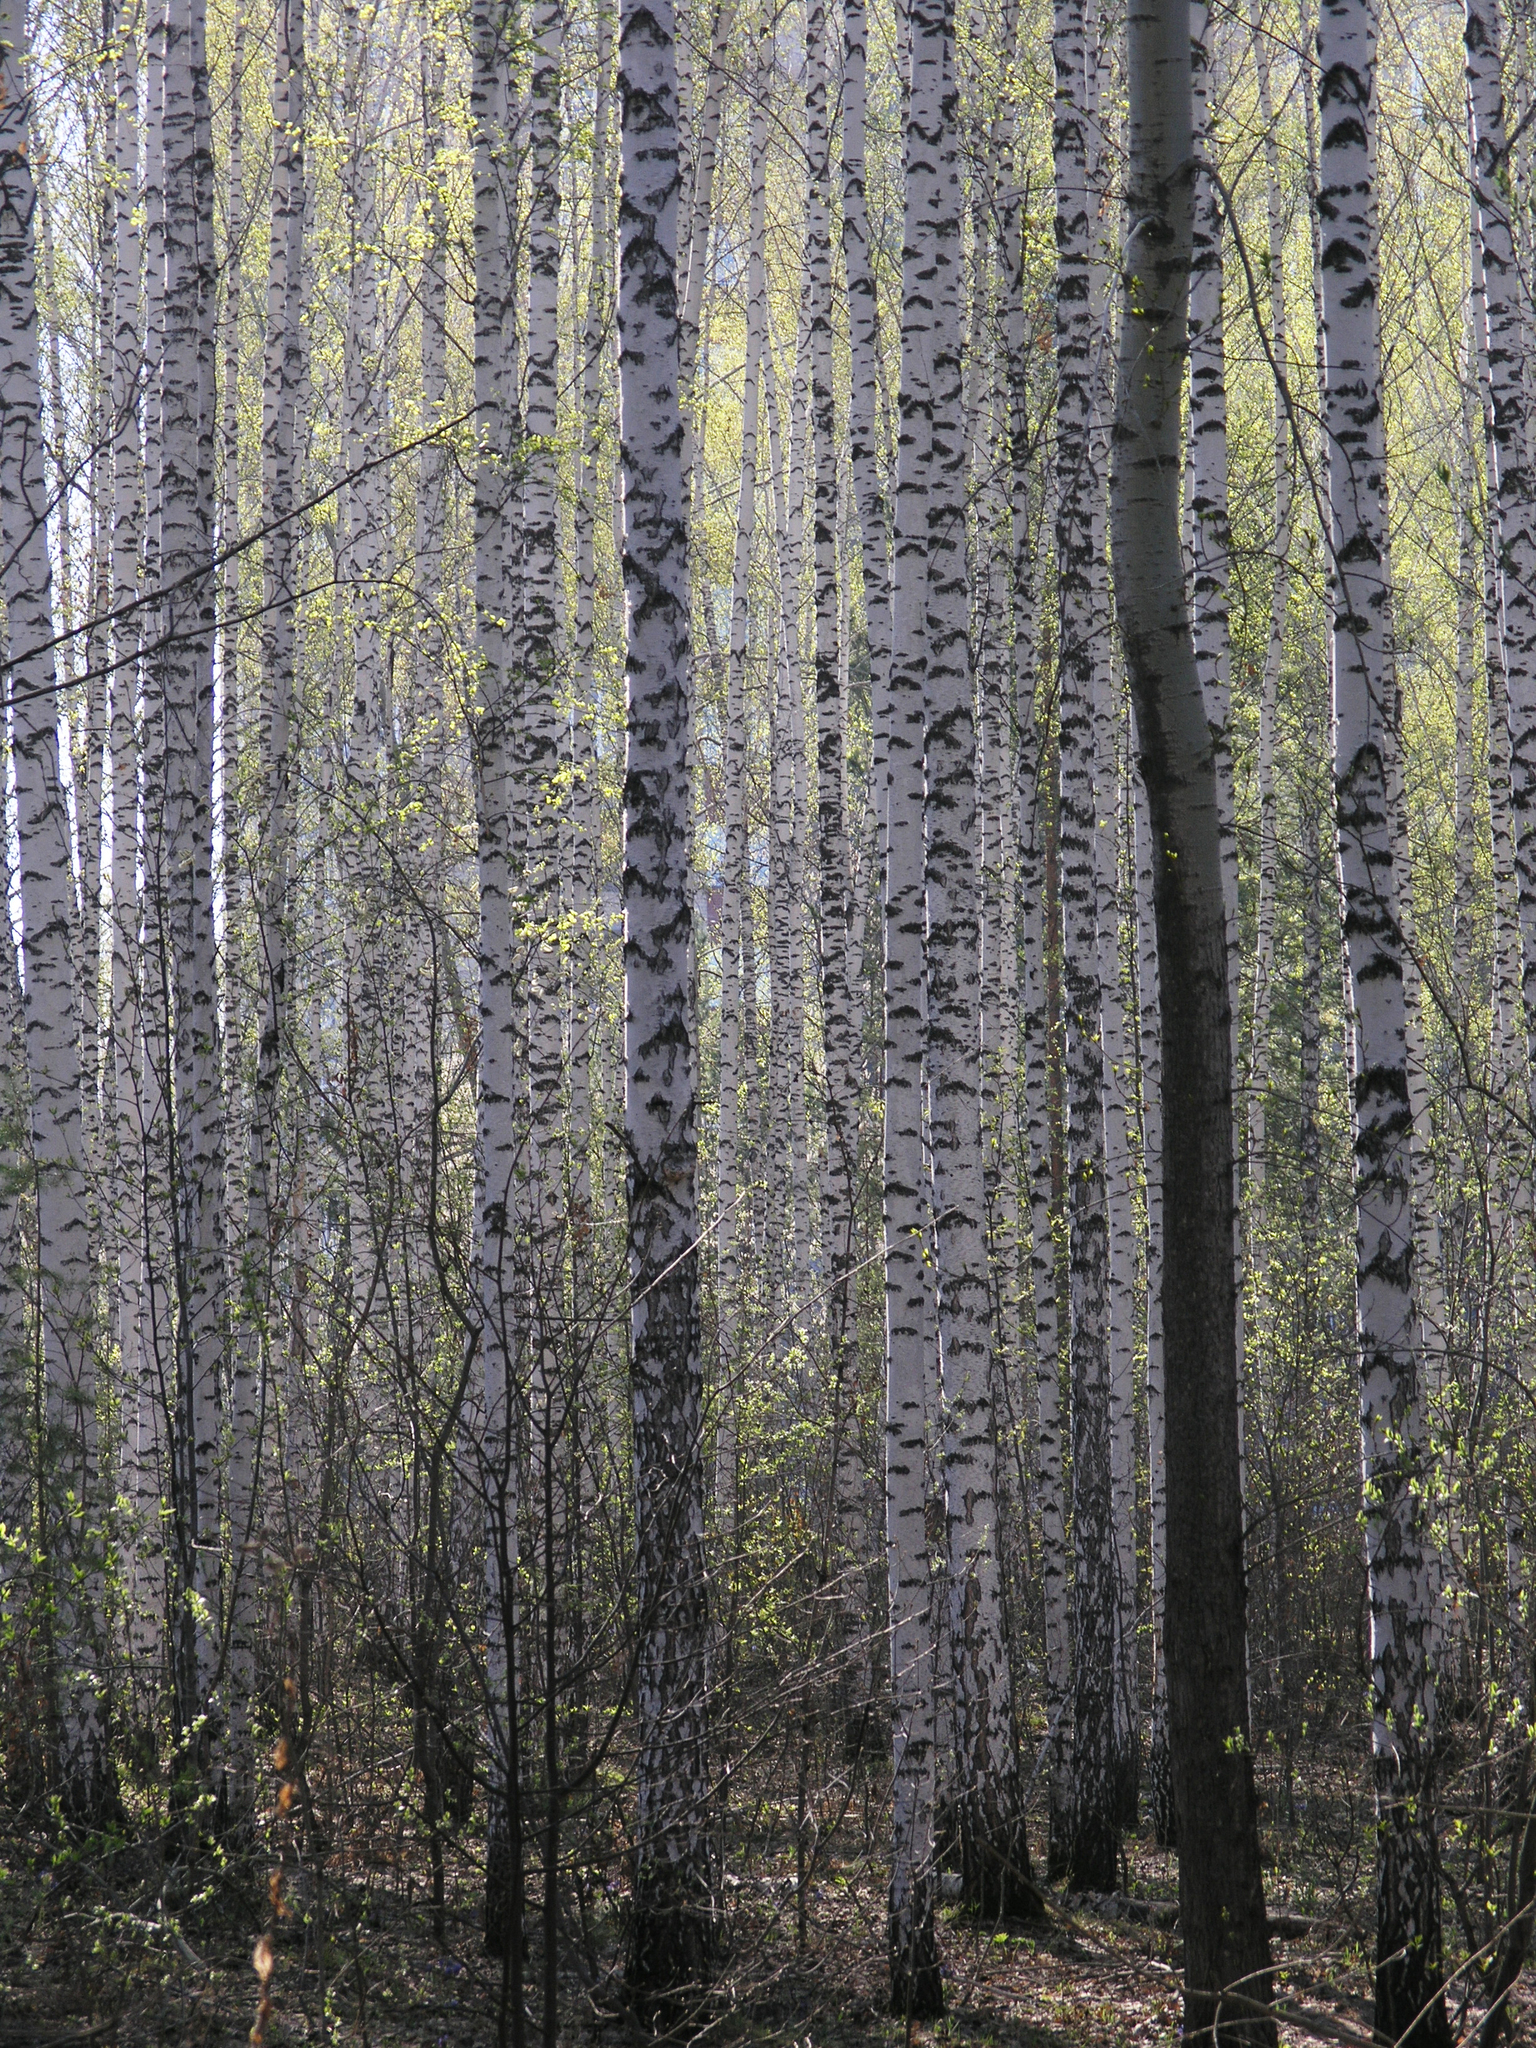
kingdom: Plantae
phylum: Tracheophyta
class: Magnoliopsida
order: Fagales
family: Betulaceae
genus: Betula
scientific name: Betula pendula
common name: Silver birch
